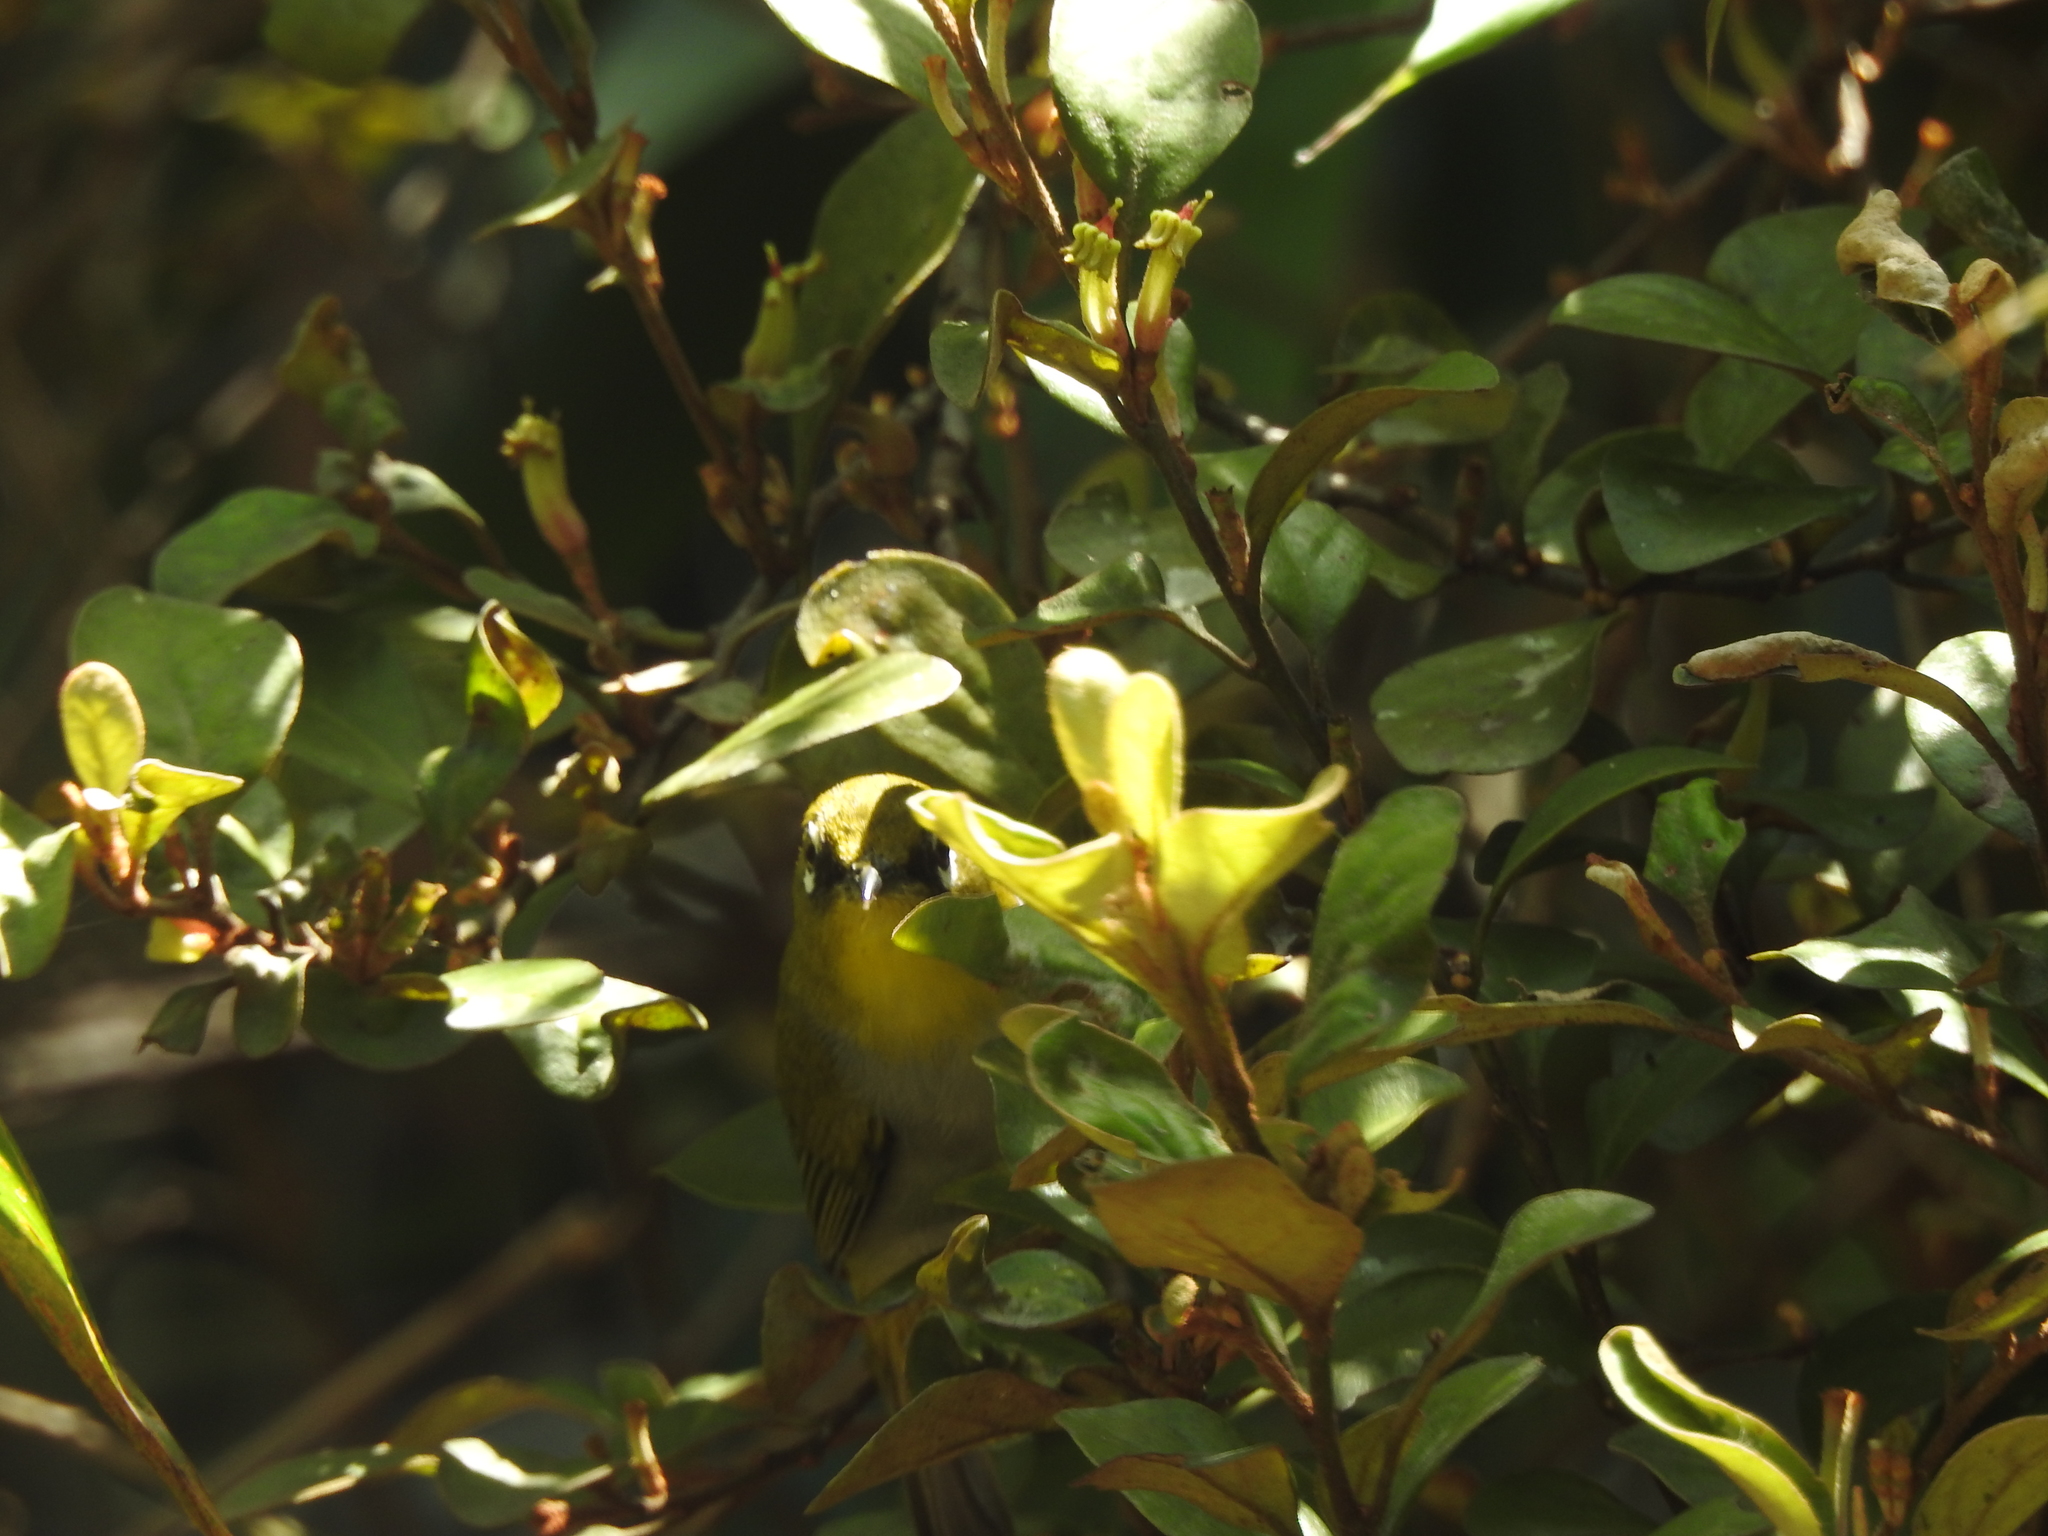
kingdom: Animalia
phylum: Chordata
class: Aves
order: Passeriformes
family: Zosteropidae
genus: Zosterops
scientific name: Zosterops palpebrosus
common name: Oriental white-eye
